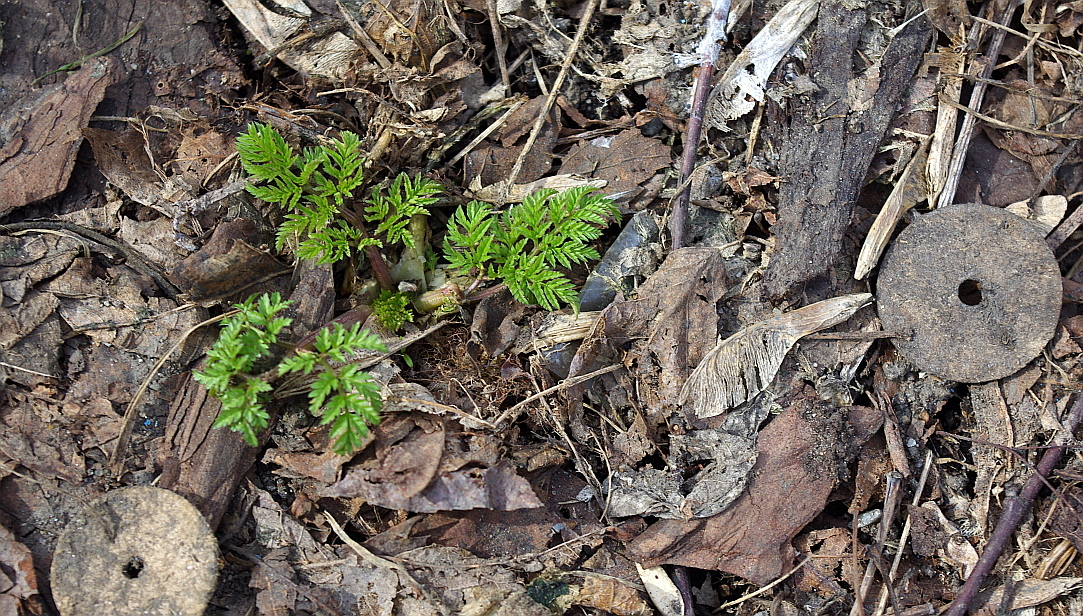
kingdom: Plantae
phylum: Tracheophyta
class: Magnoliopsida
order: Apiales
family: Apiaceae
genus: Anthriscus
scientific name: Anthriscus sylvestris
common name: Cow parsley
